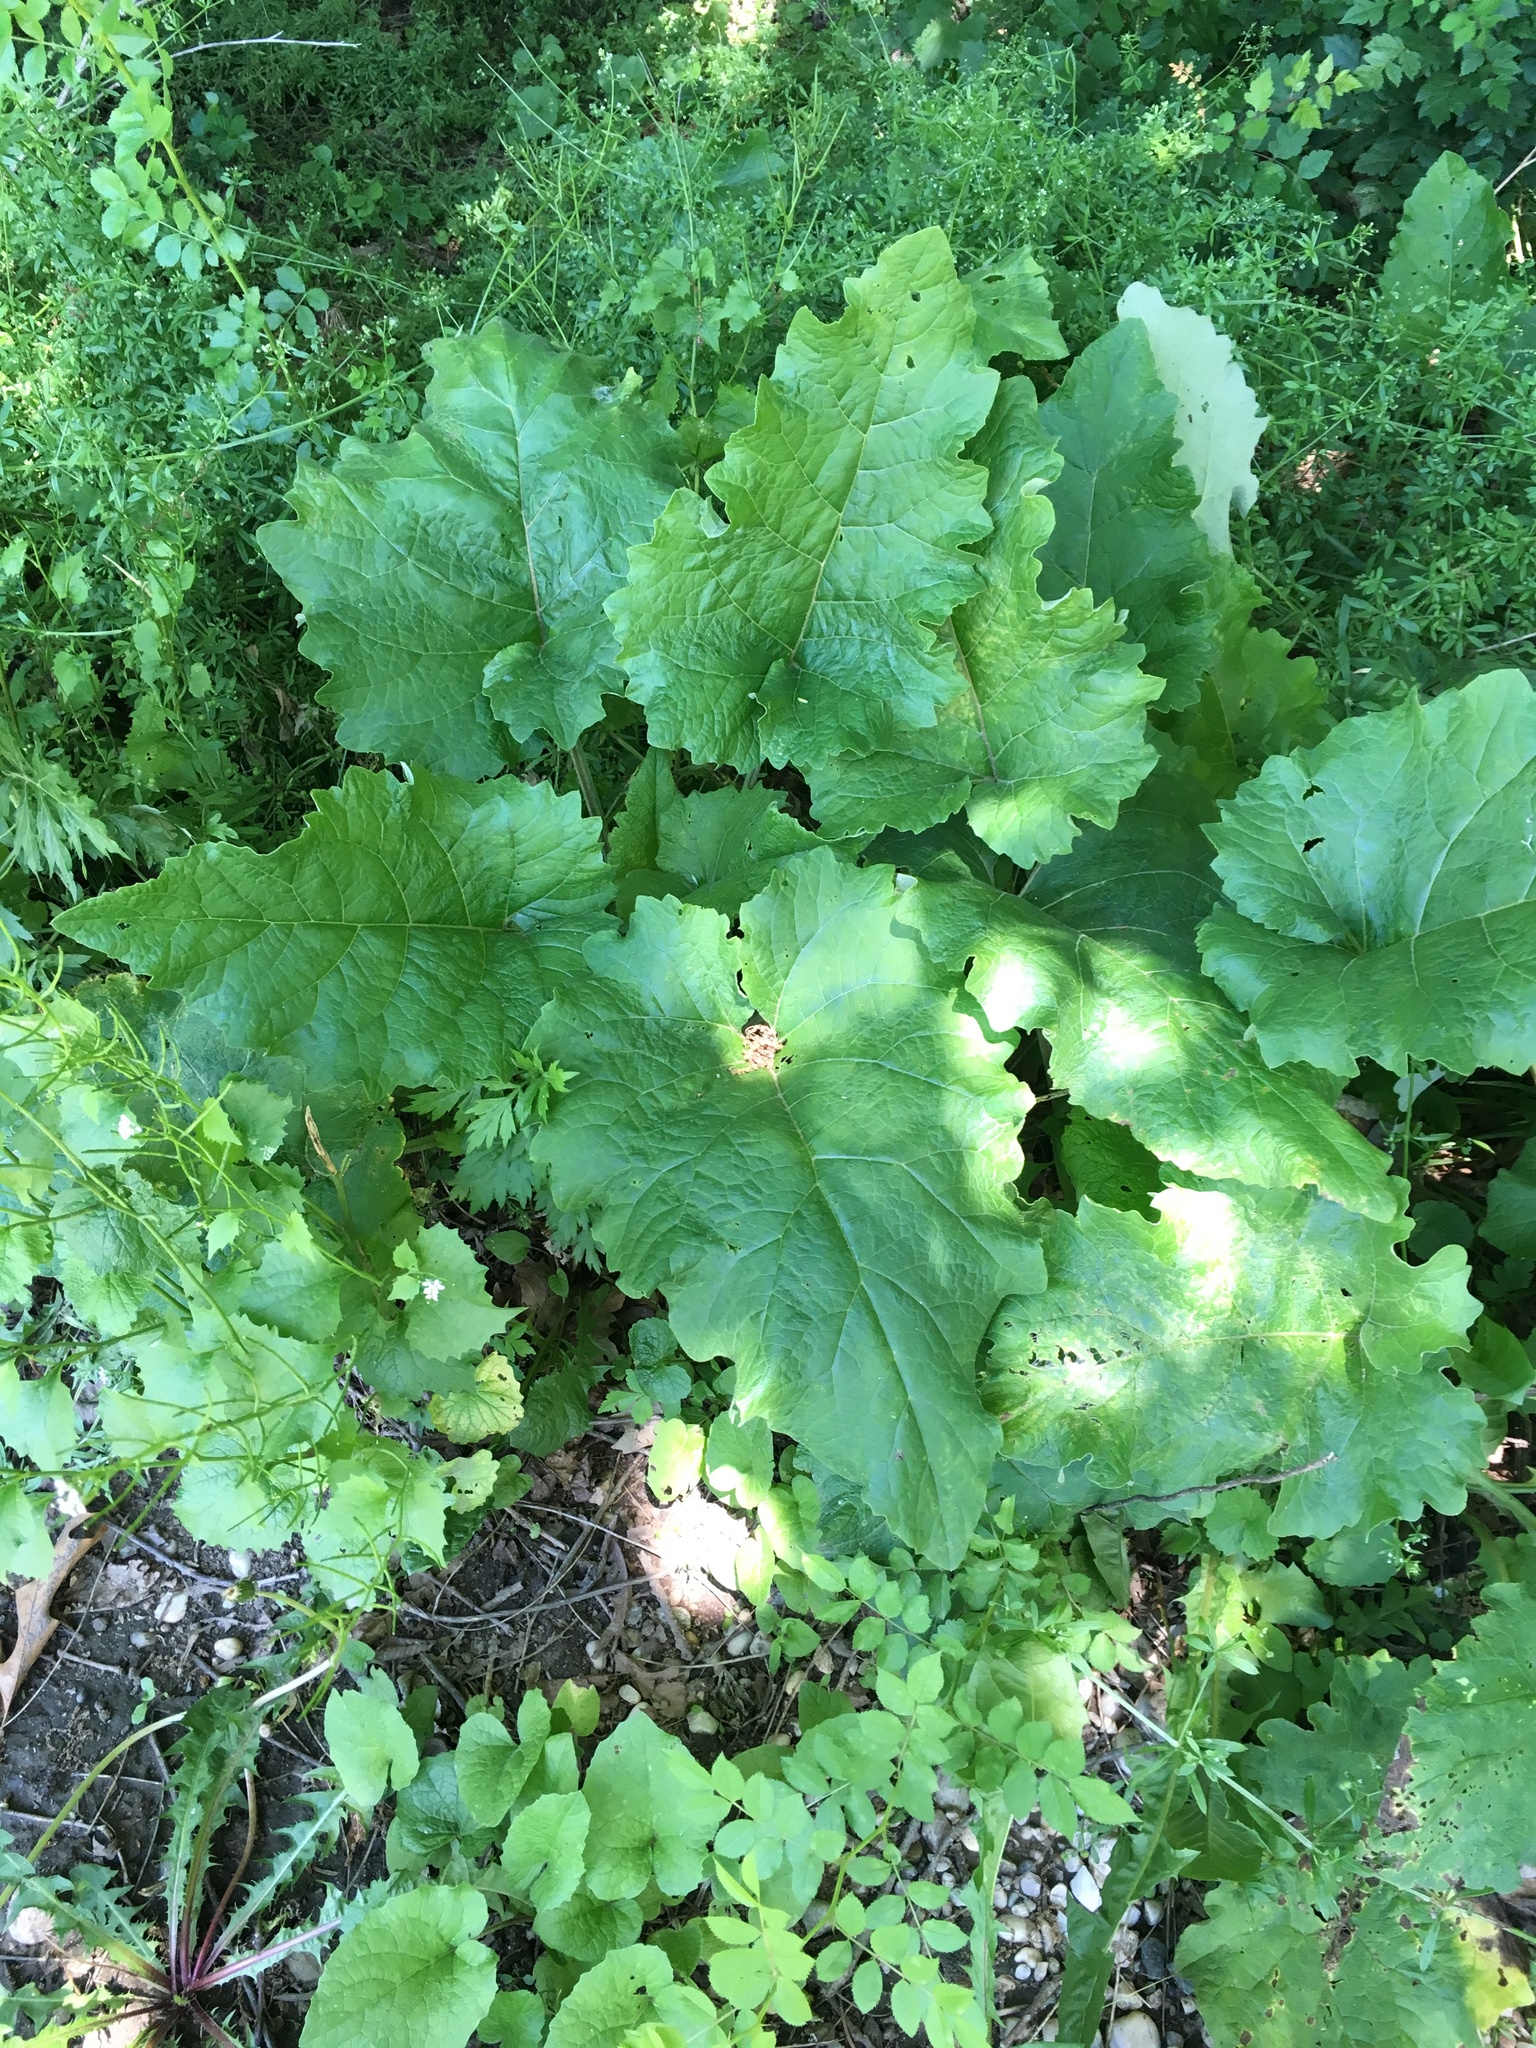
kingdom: Plantae
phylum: Tracheophyta
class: Magnoliopsida
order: Asterales
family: Asteraceae
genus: Arctium
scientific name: Arctium minus
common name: Lesser burdock
